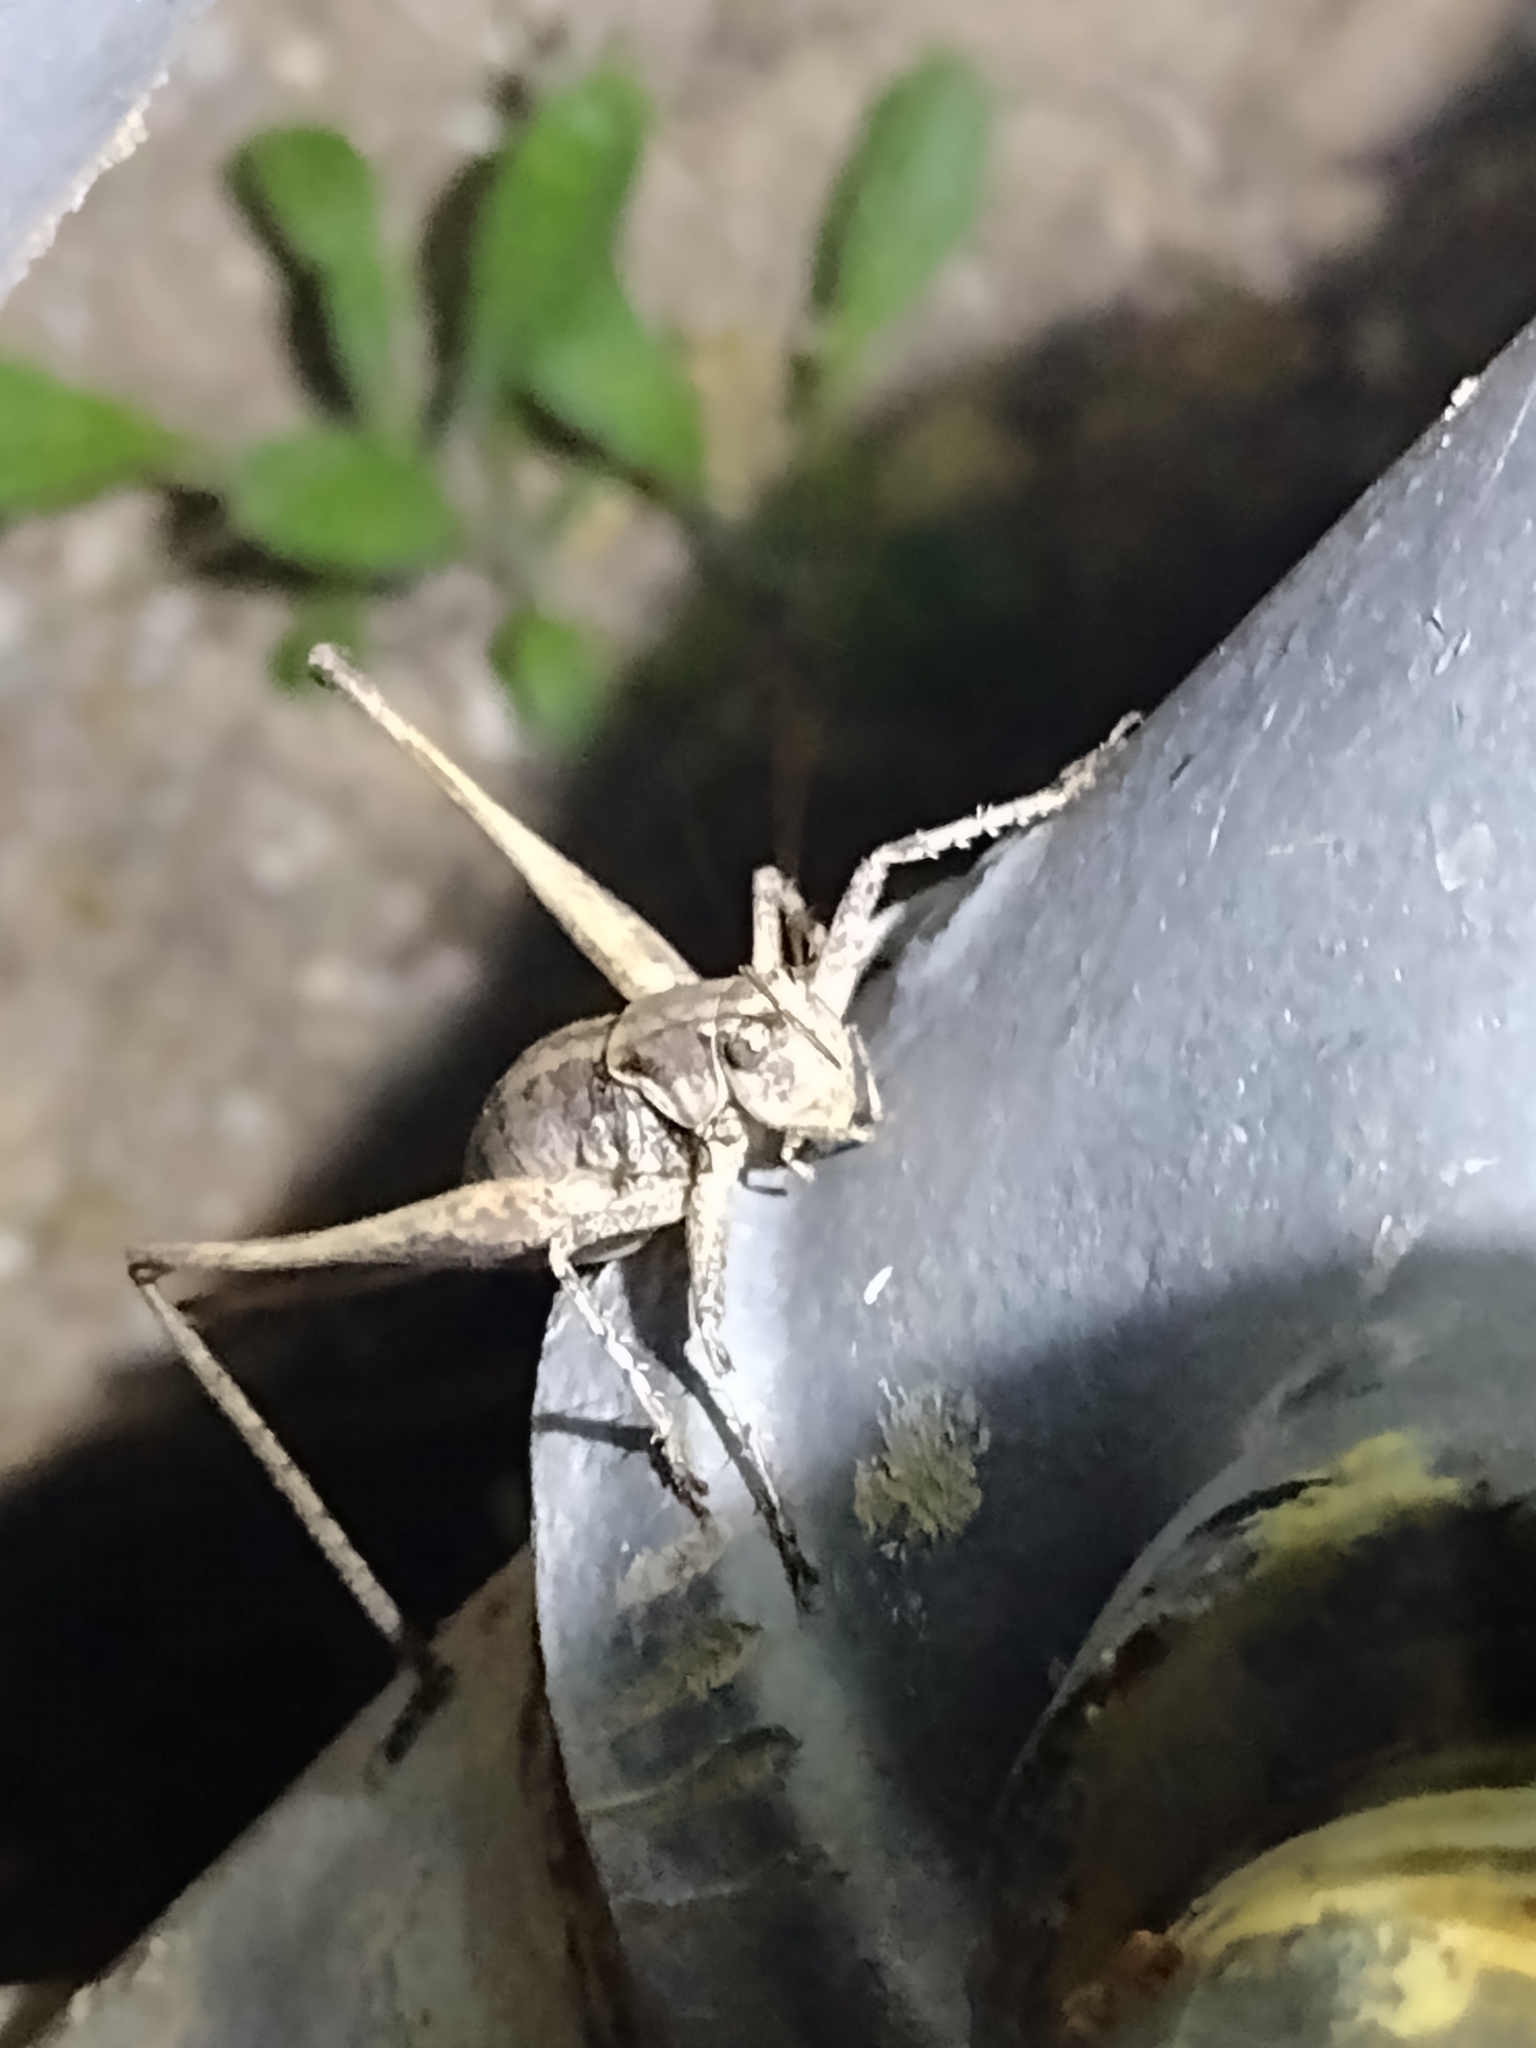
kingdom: Animalia
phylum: Arthropoda
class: Insecta
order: Orthoptera
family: Tettigoniidae
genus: Idiostatus
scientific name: Idiostatus aequalis
